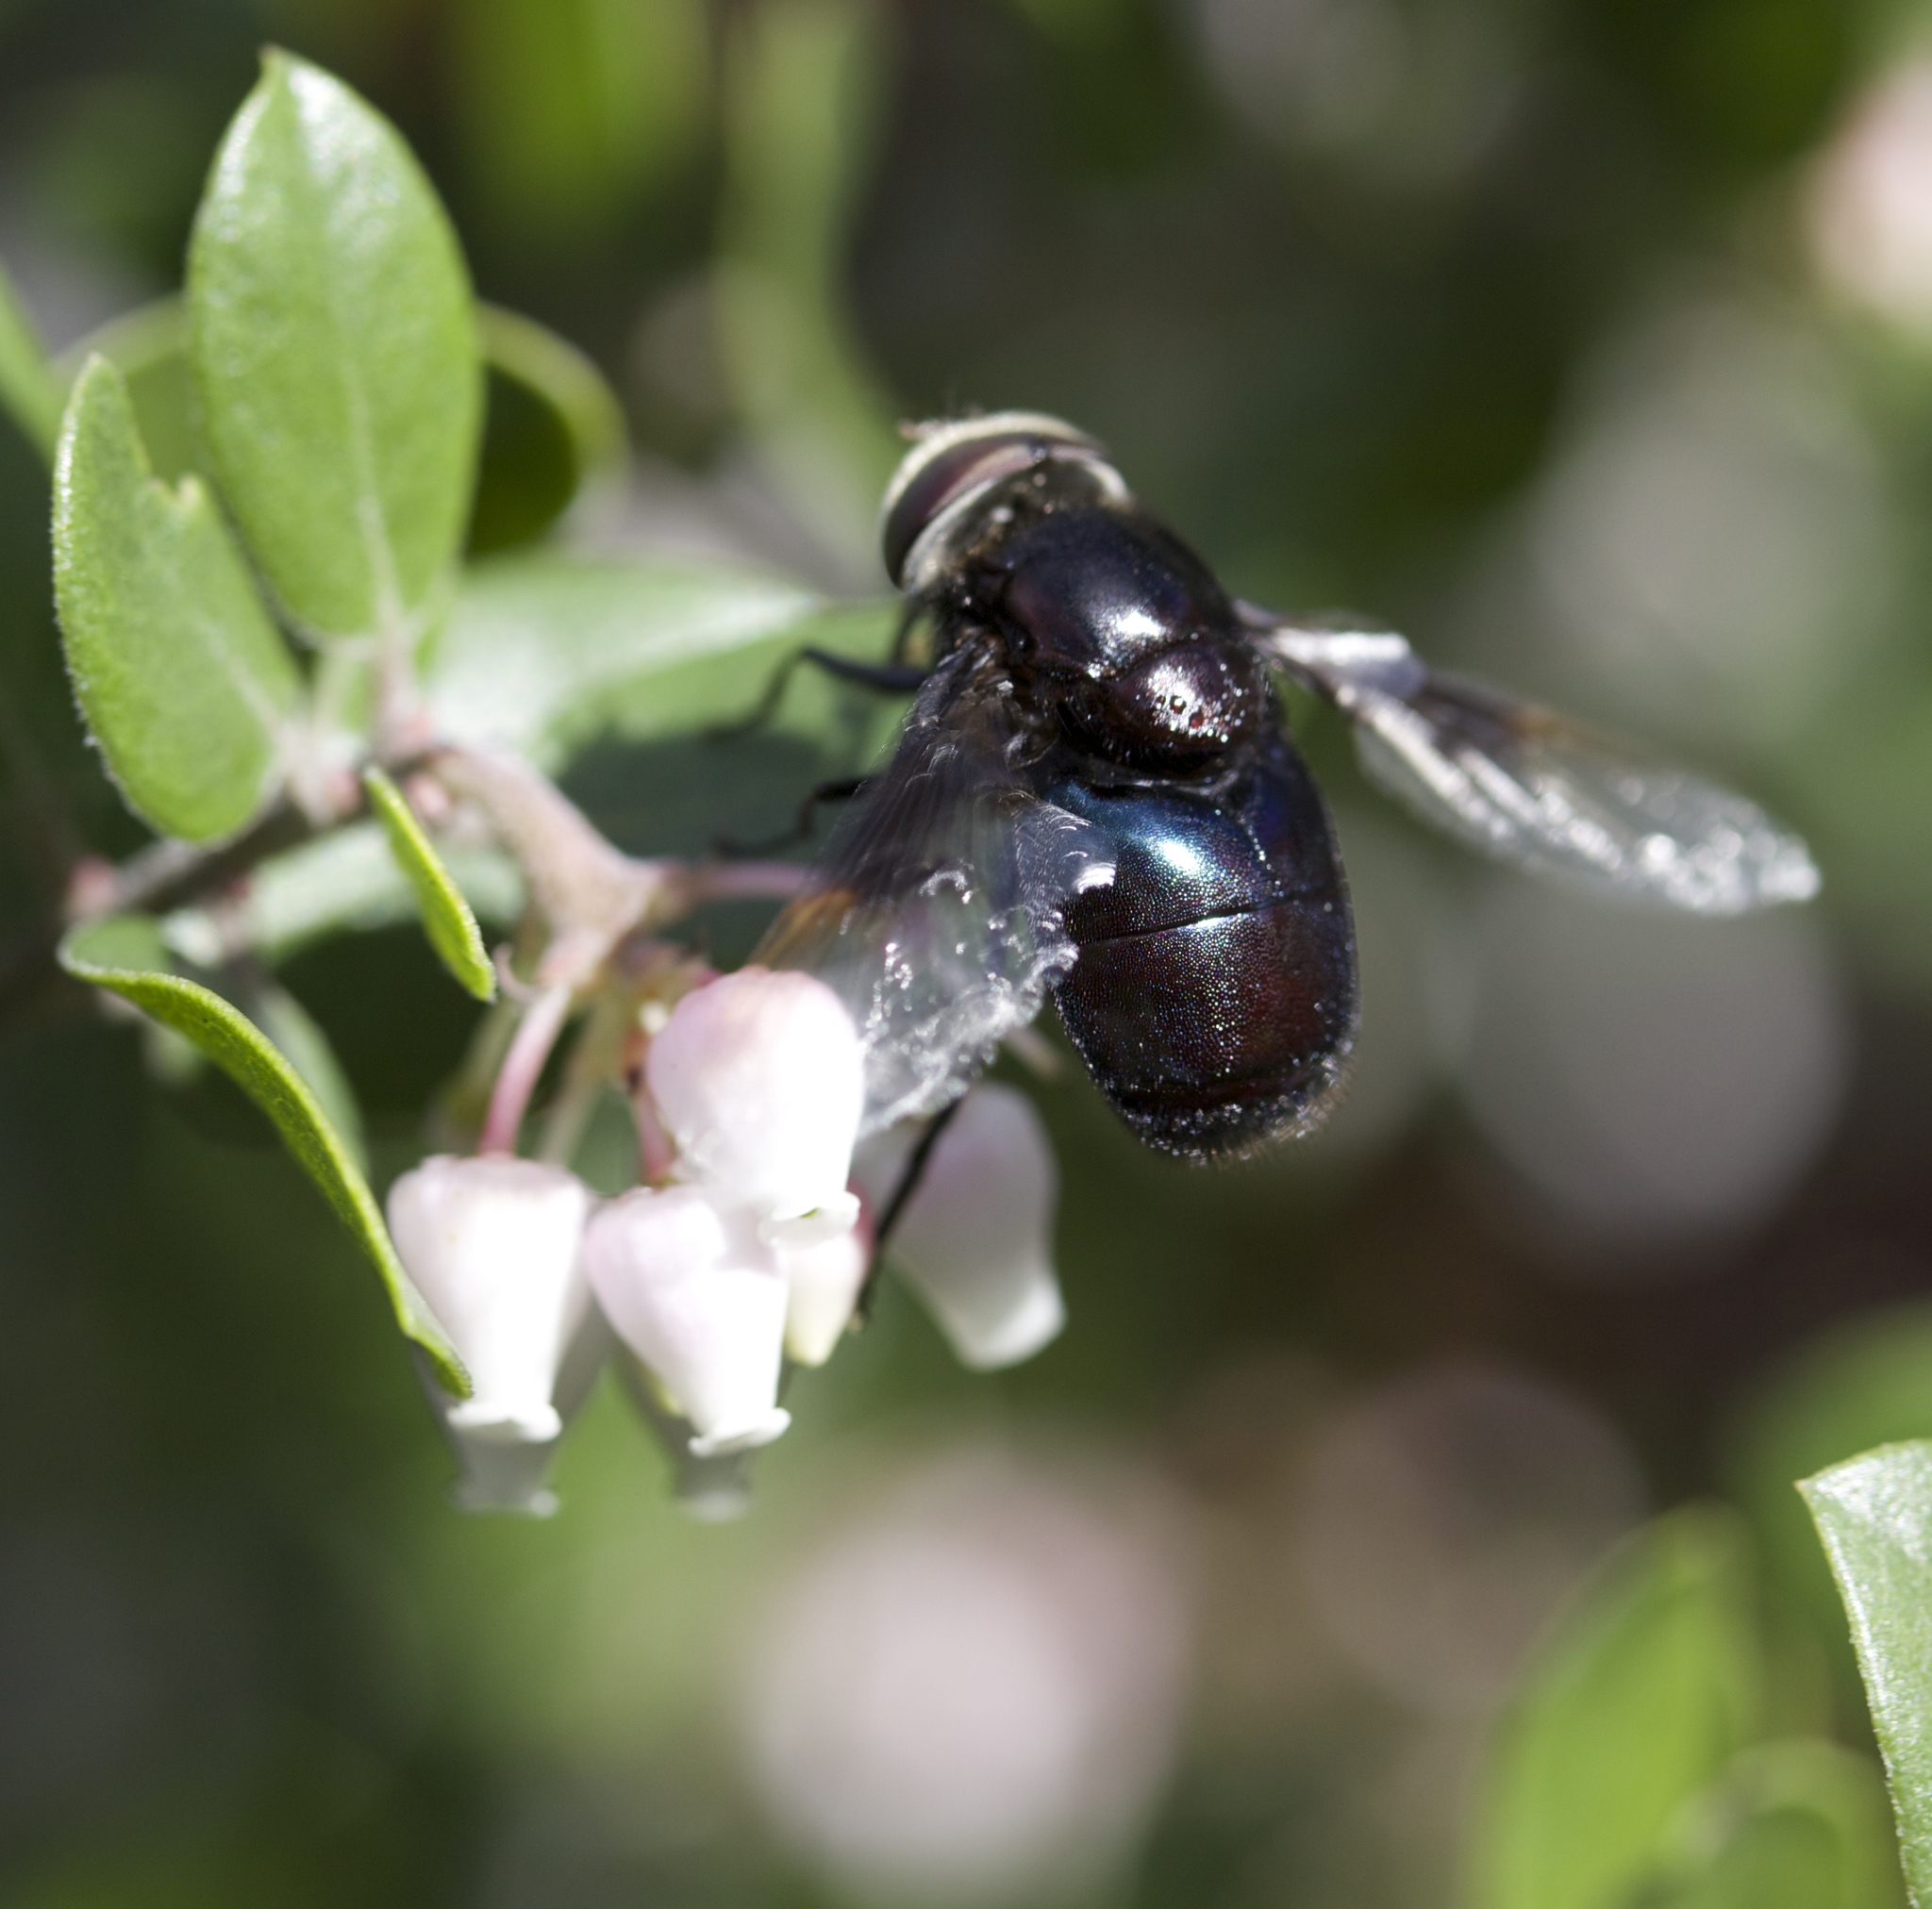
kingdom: Animalia
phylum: Arthropoda
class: Insecta
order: Diptera
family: Syrphidae
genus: Copestylum
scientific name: Copestylum violaceum
